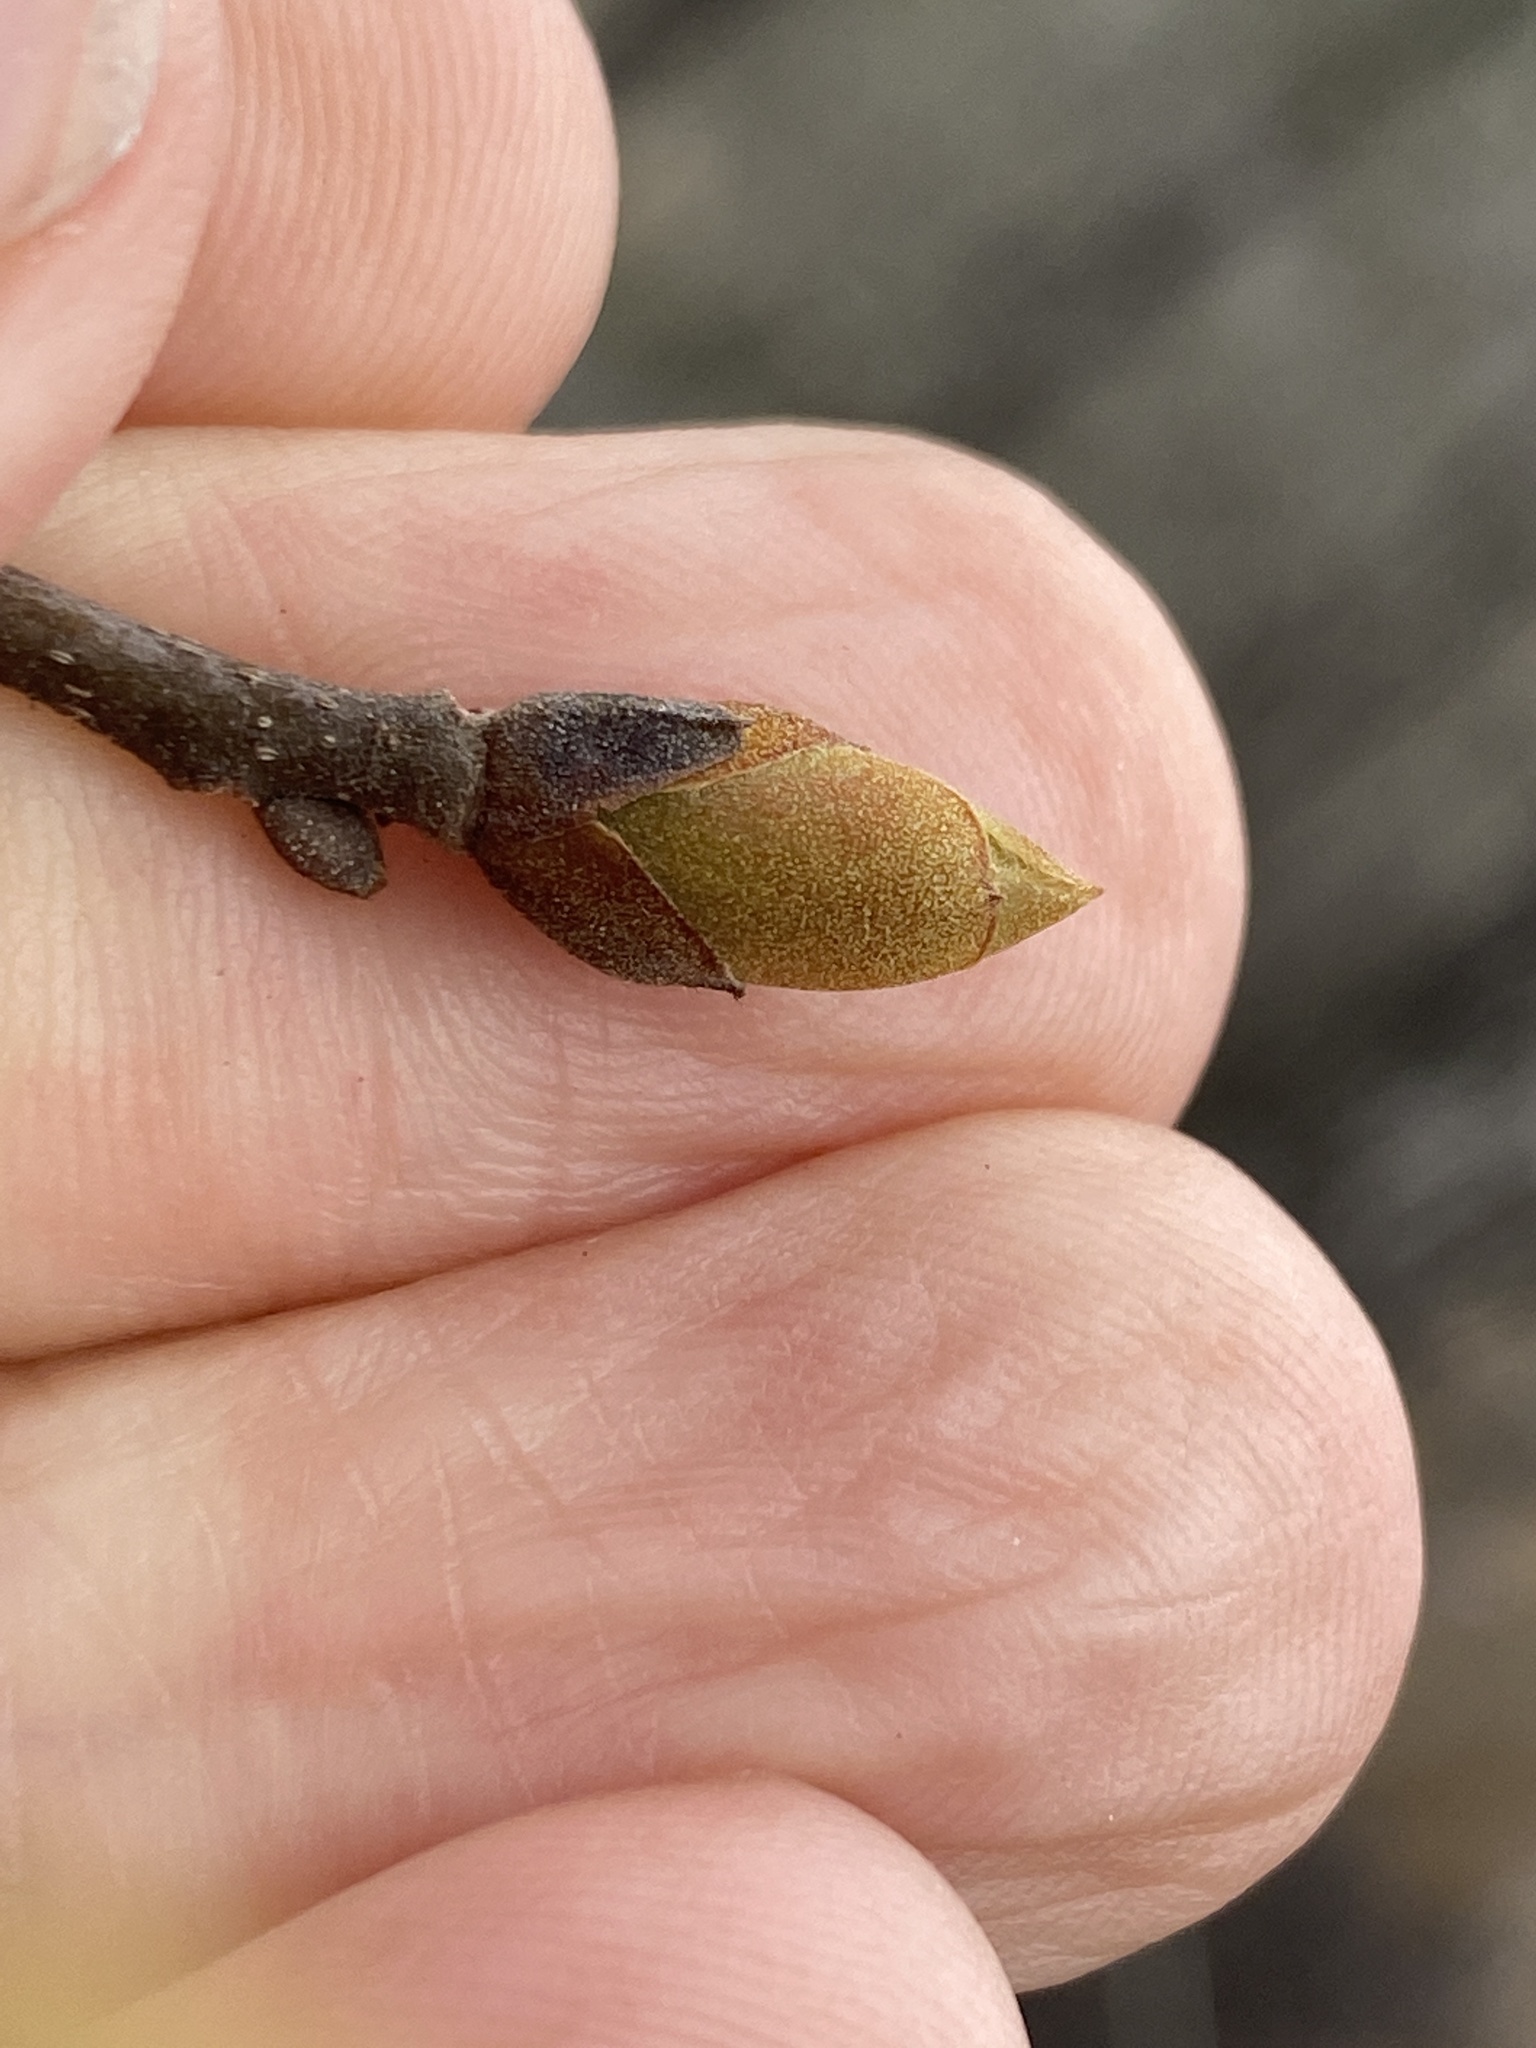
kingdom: Plantae
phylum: Tracheophyta
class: Magnoliopsida
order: Fagales
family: Juglandaceae
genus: Carya
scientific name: Carya texana
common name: Black hickory
